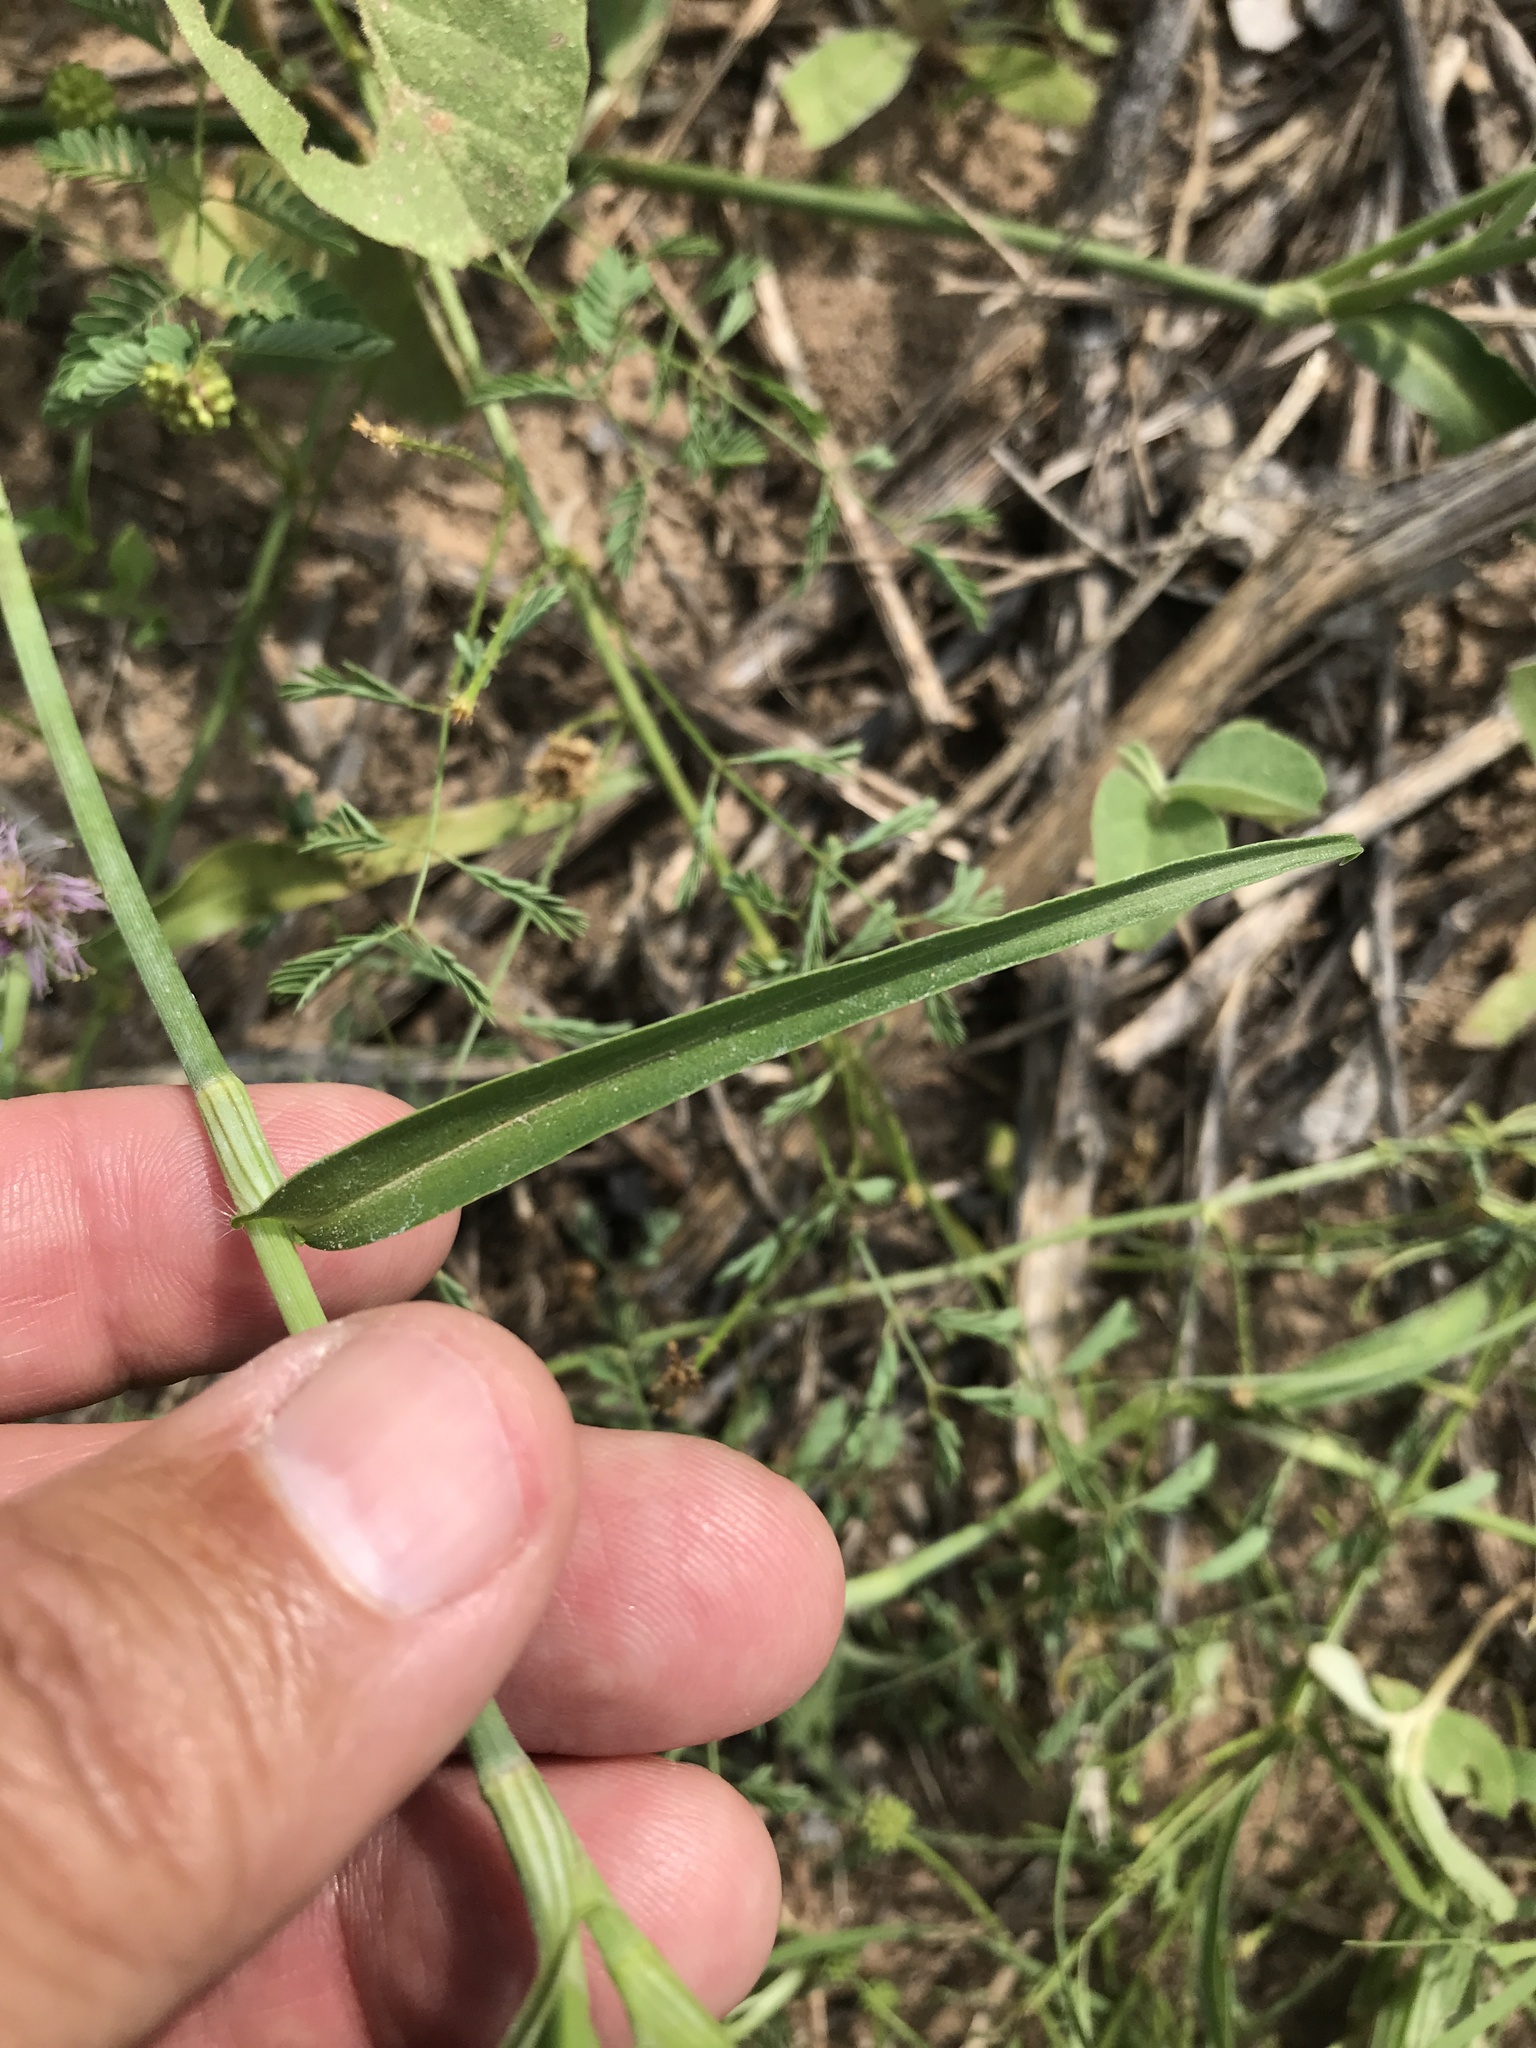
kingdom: Plantae
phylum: Tracheophyta
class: Liliopsida
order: Commelinales
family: Commelinaceae
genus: Commelina
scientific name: Commelina erecta
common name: Blousel blommetjie
